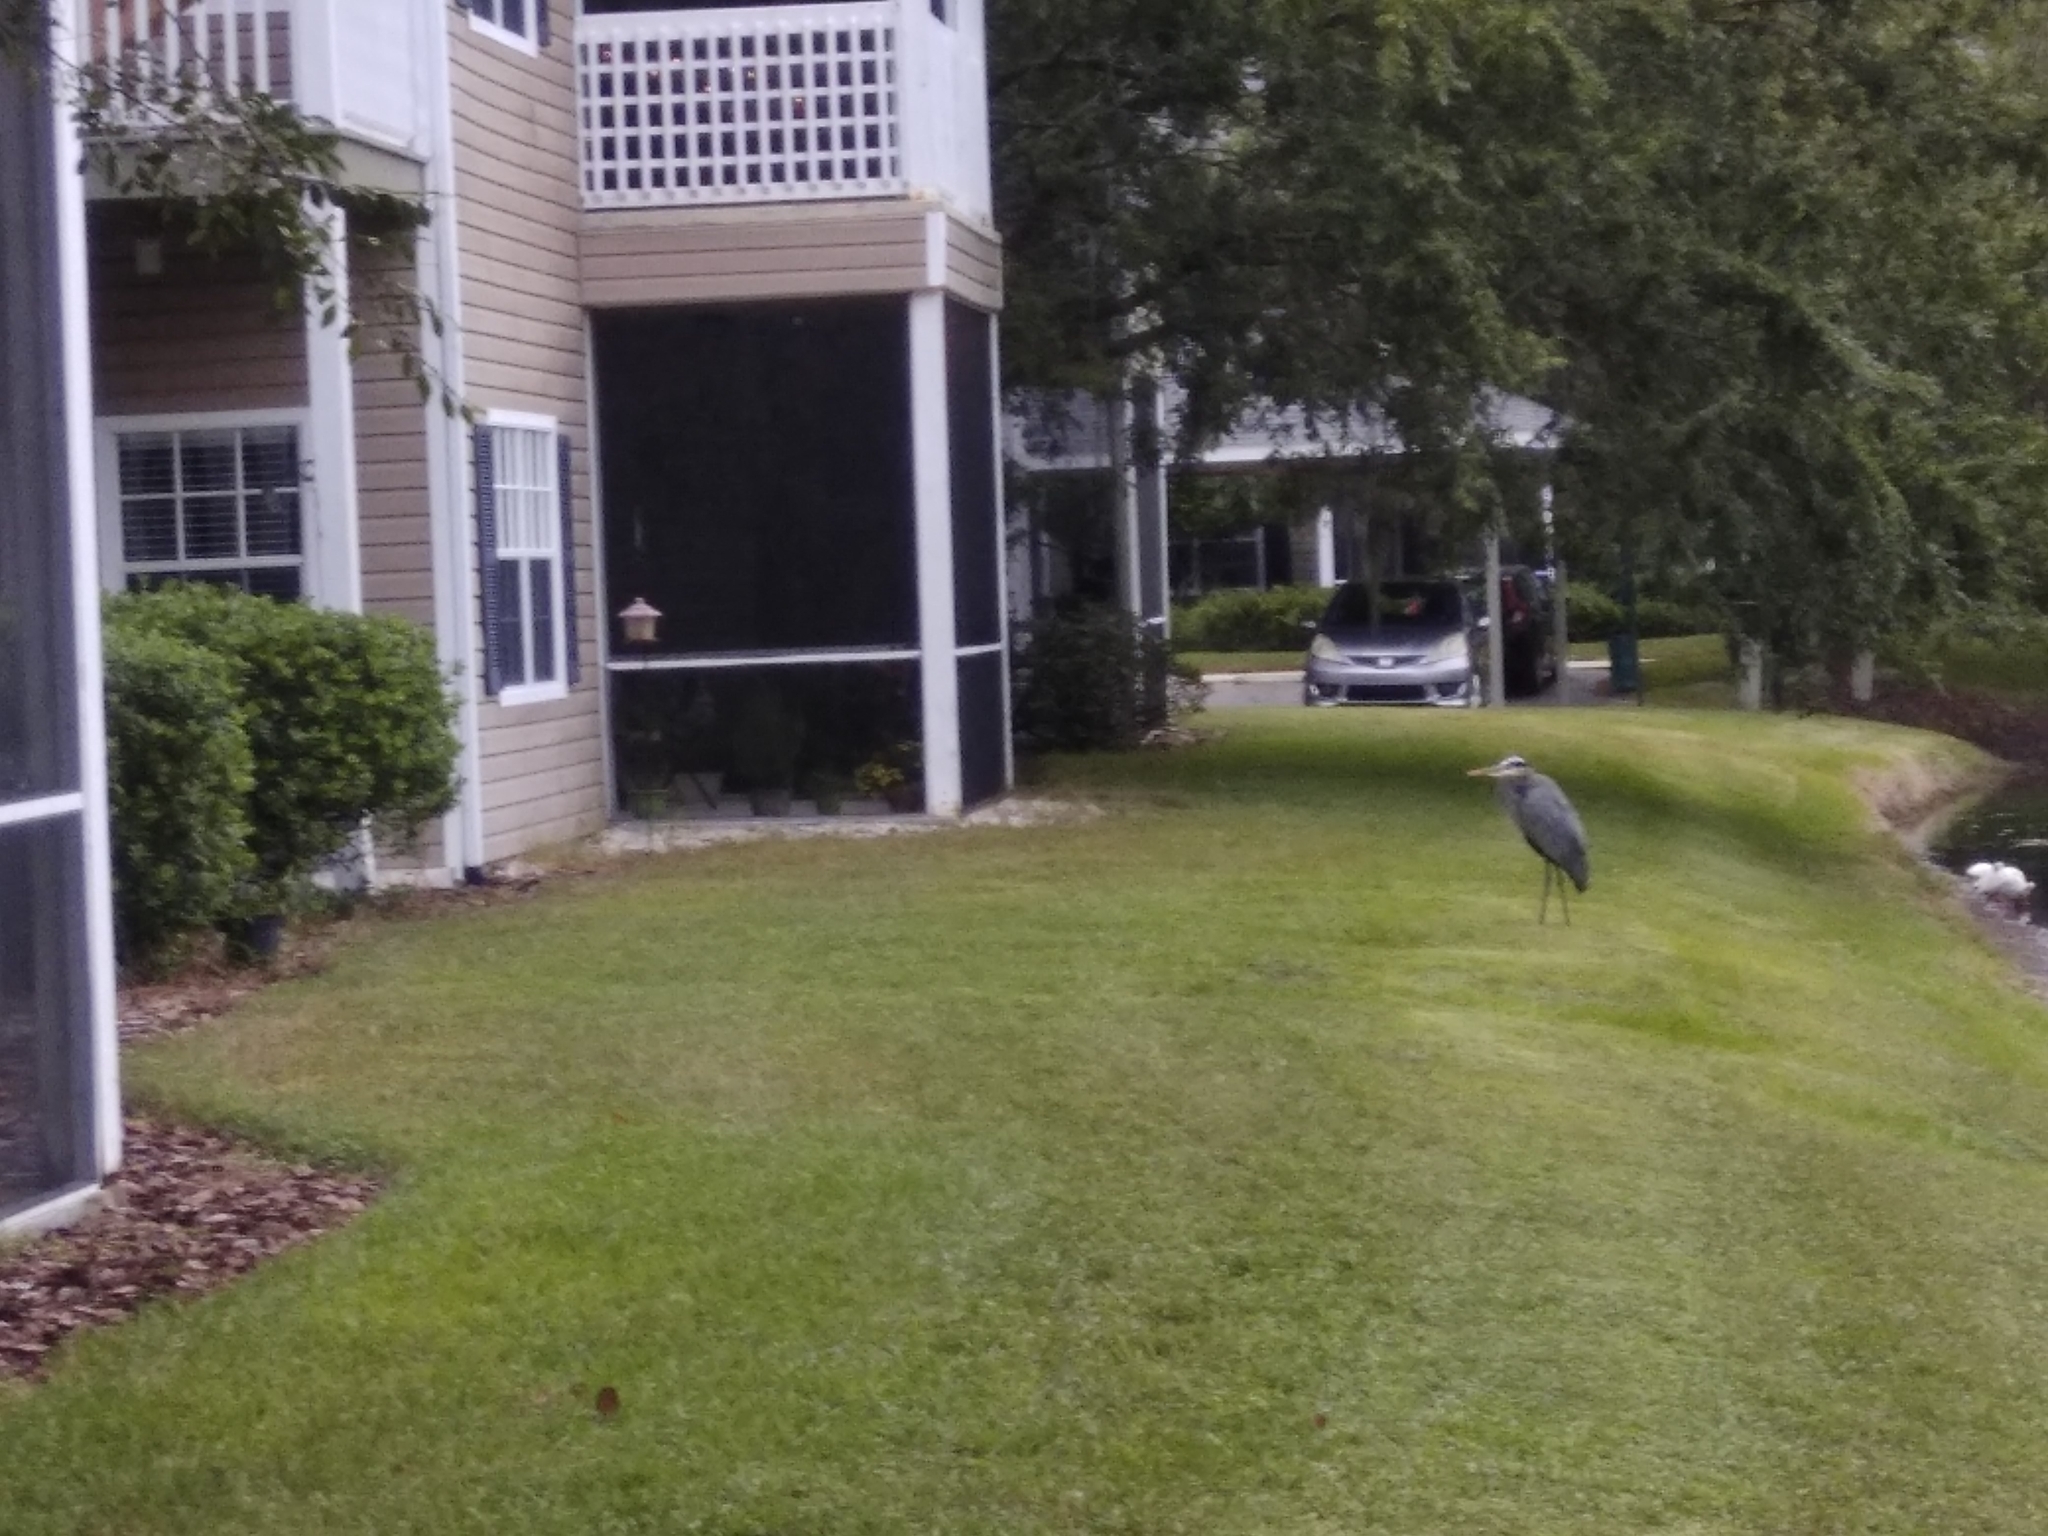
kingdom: Animalia
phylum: Chordata
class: Aves
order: Pelecaniformes
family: Ardeidae
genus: Ardea
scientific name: Ardea herodias
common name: Great blue heron
